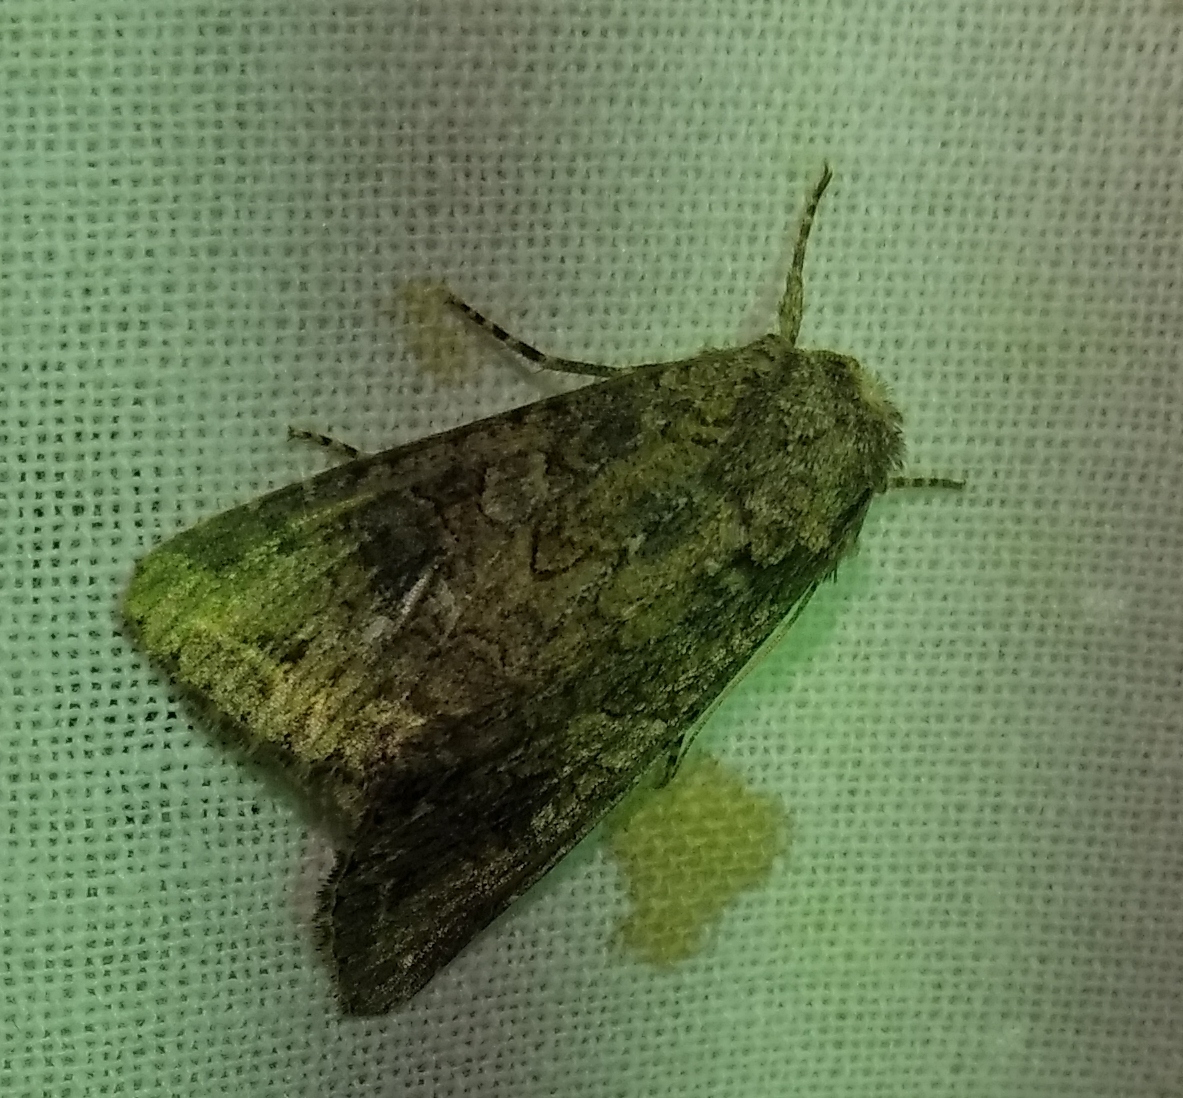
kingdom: Animalia
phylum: Arthropoda
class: Insecta
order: Lepidoptera
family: Noctuidae
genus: Anarta
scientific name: Anarta trifolii
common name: Clover cutworm moth
